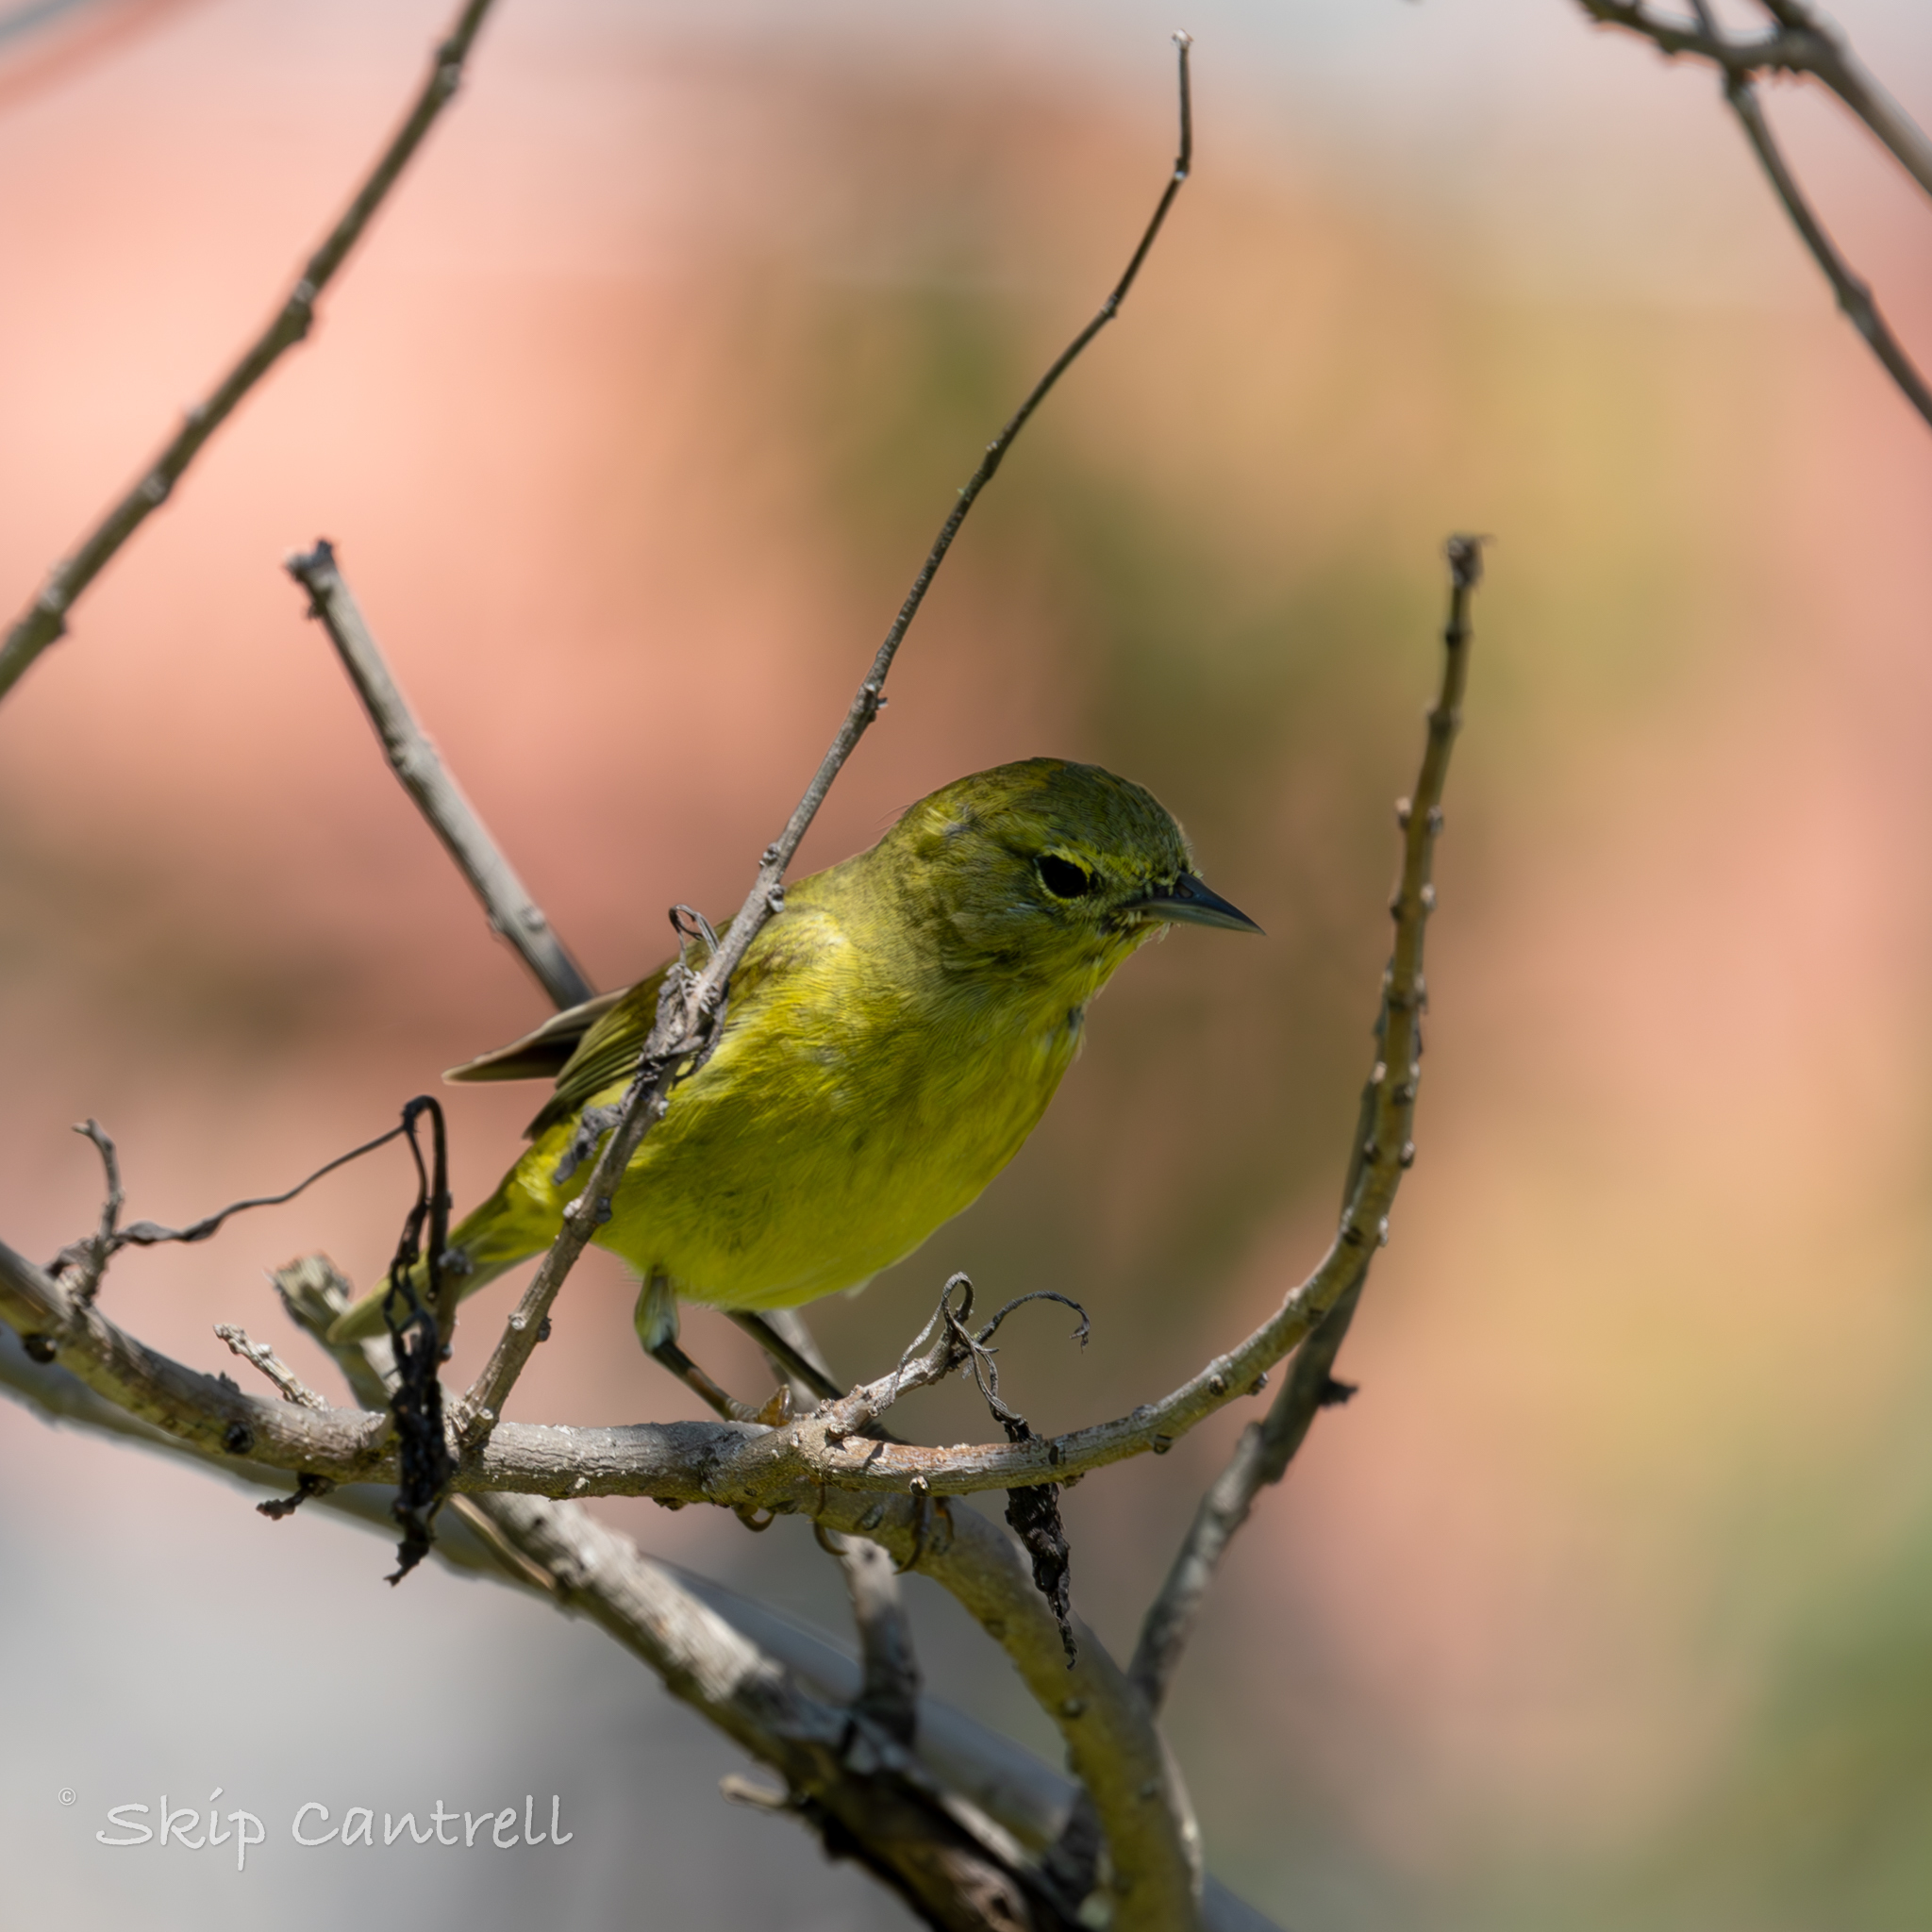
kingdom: Animalia
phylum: Chordata
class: Aves
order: Passeriformes
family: Parulidae
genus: Leiothlypis
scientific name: Leiothlypis celata
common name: Orange-crowned warbler
